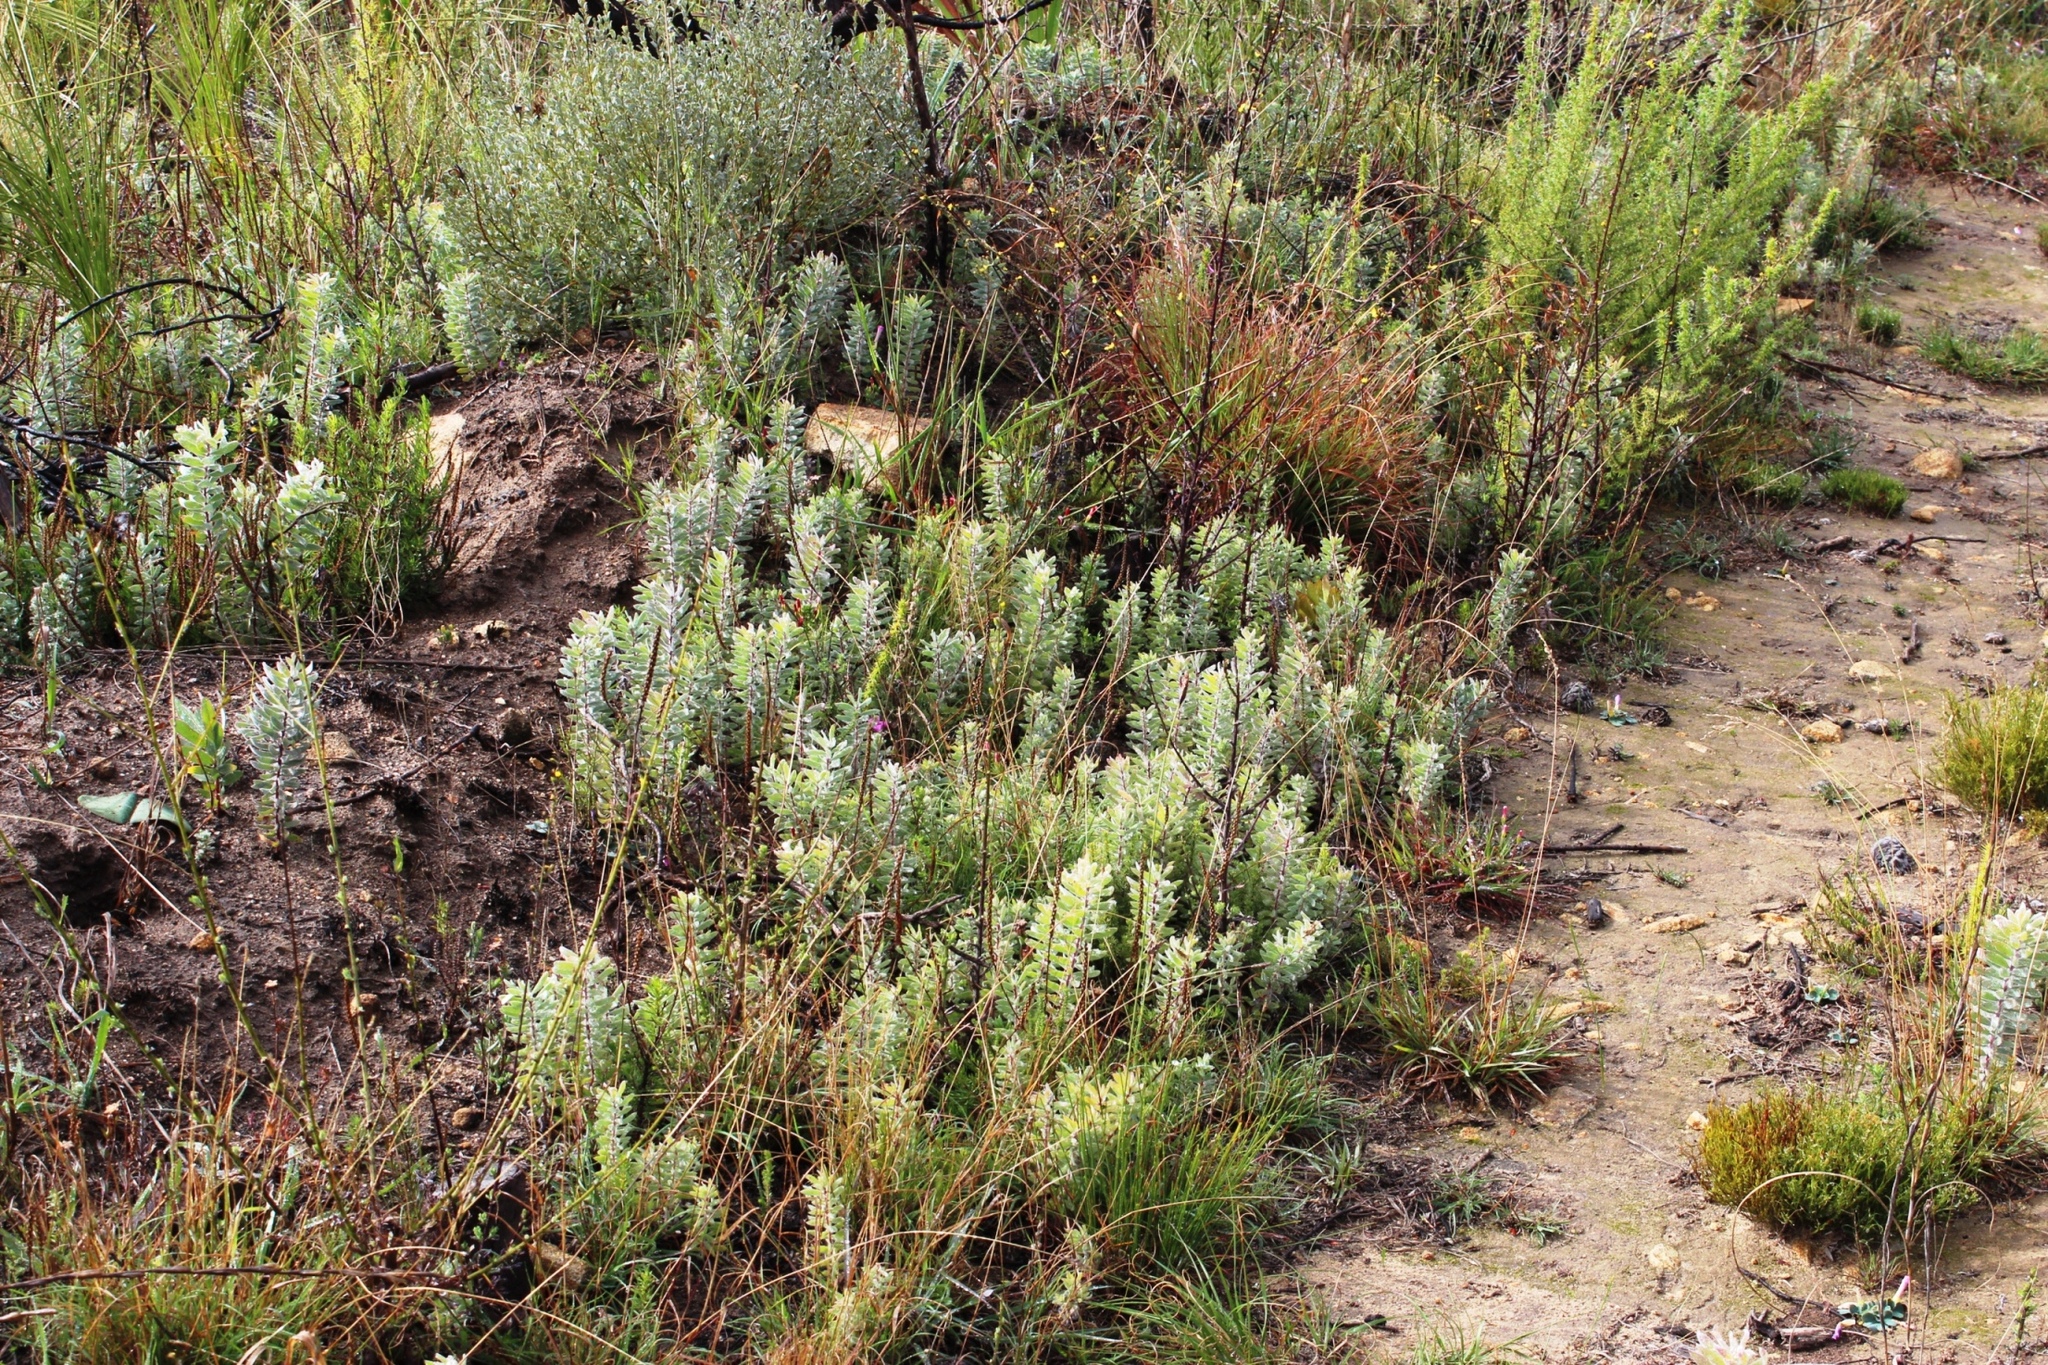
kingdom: Plantae
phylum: Tracheophyta
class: Magnoliopsida
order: Proteales
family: Proteaceae
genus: Leucadendron
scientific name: Leucadendron rubrum
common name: Spinning top
